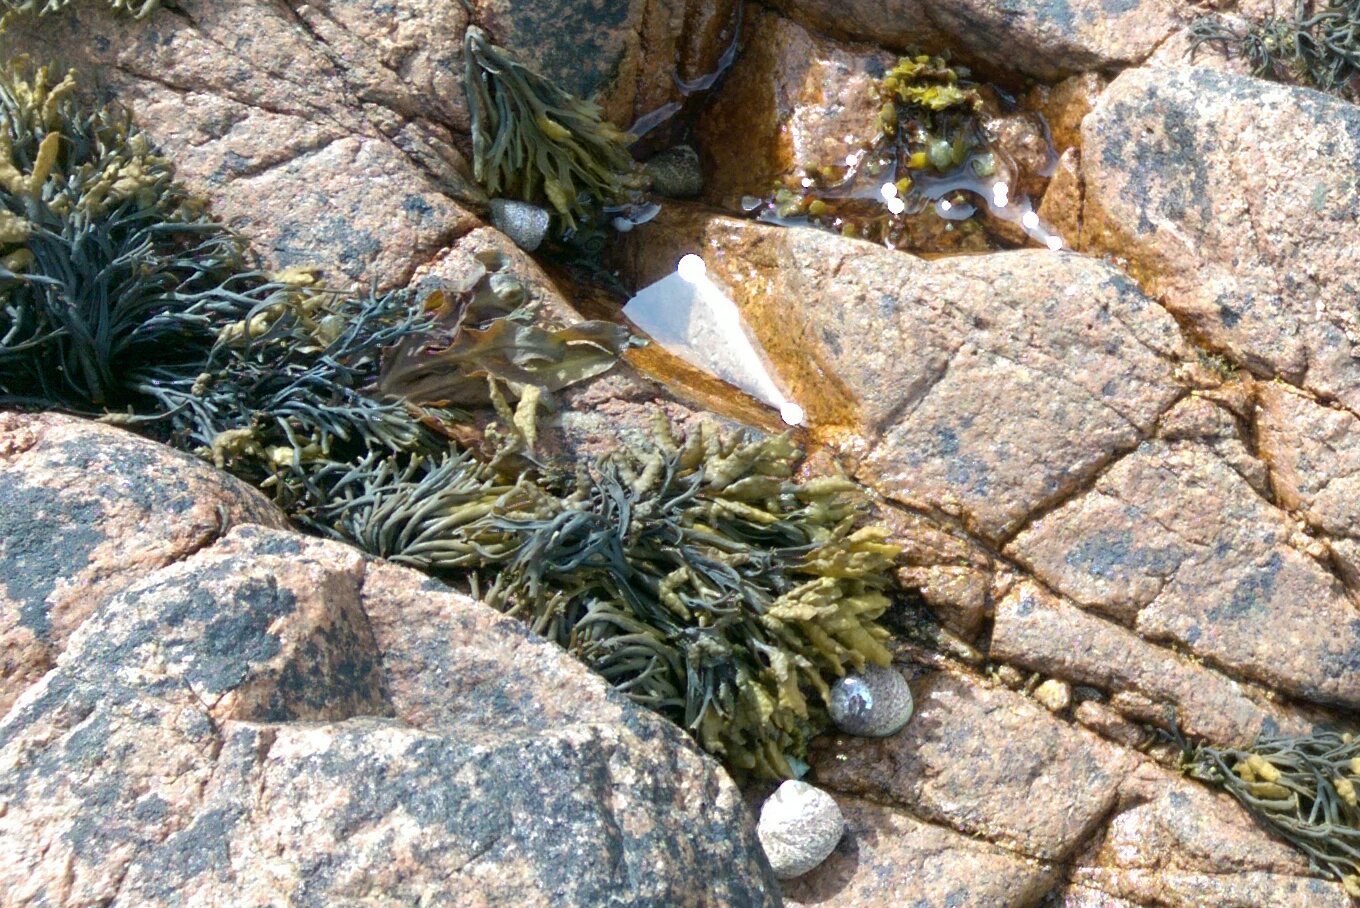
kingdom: Chromista
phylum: Ochrophyta
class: Phaeophyceae
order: Fucales
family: Fucaceae
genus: Pelvetia
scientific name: Pelvetia canaliculata
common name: Channelled wrack
